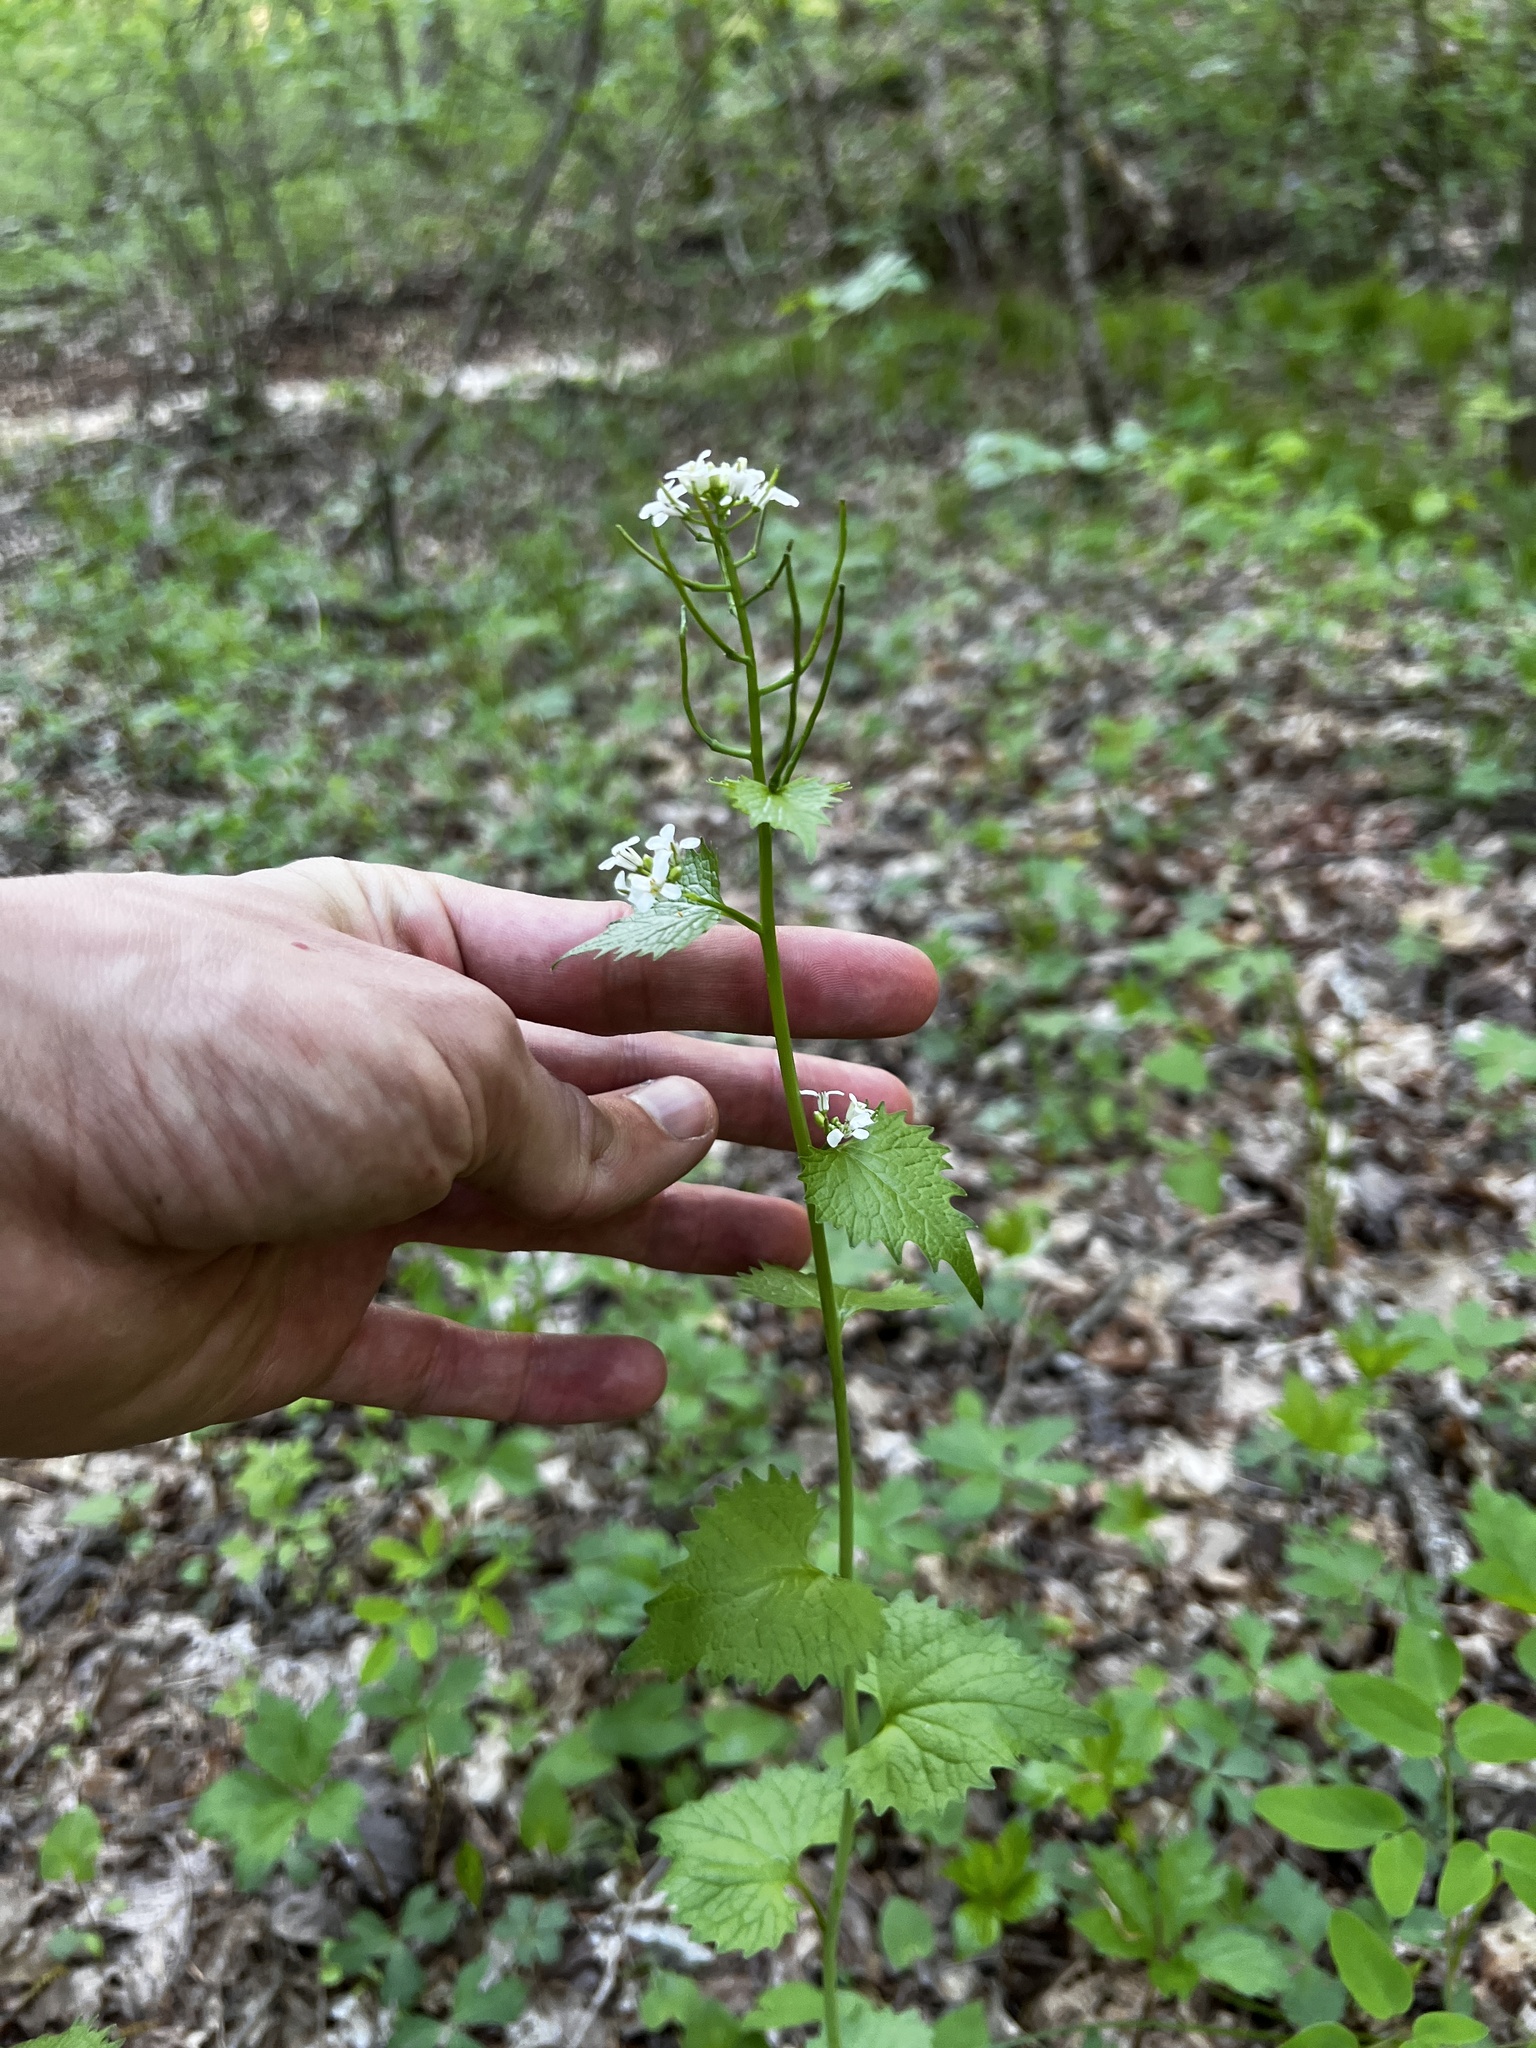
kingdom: Plantae
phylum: Tracheophyta
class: Magnoliopsida
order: Brassicales
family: Brassicaceae
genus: Alliaria
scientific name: Alliaria petiolata
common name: Garlic mustard
